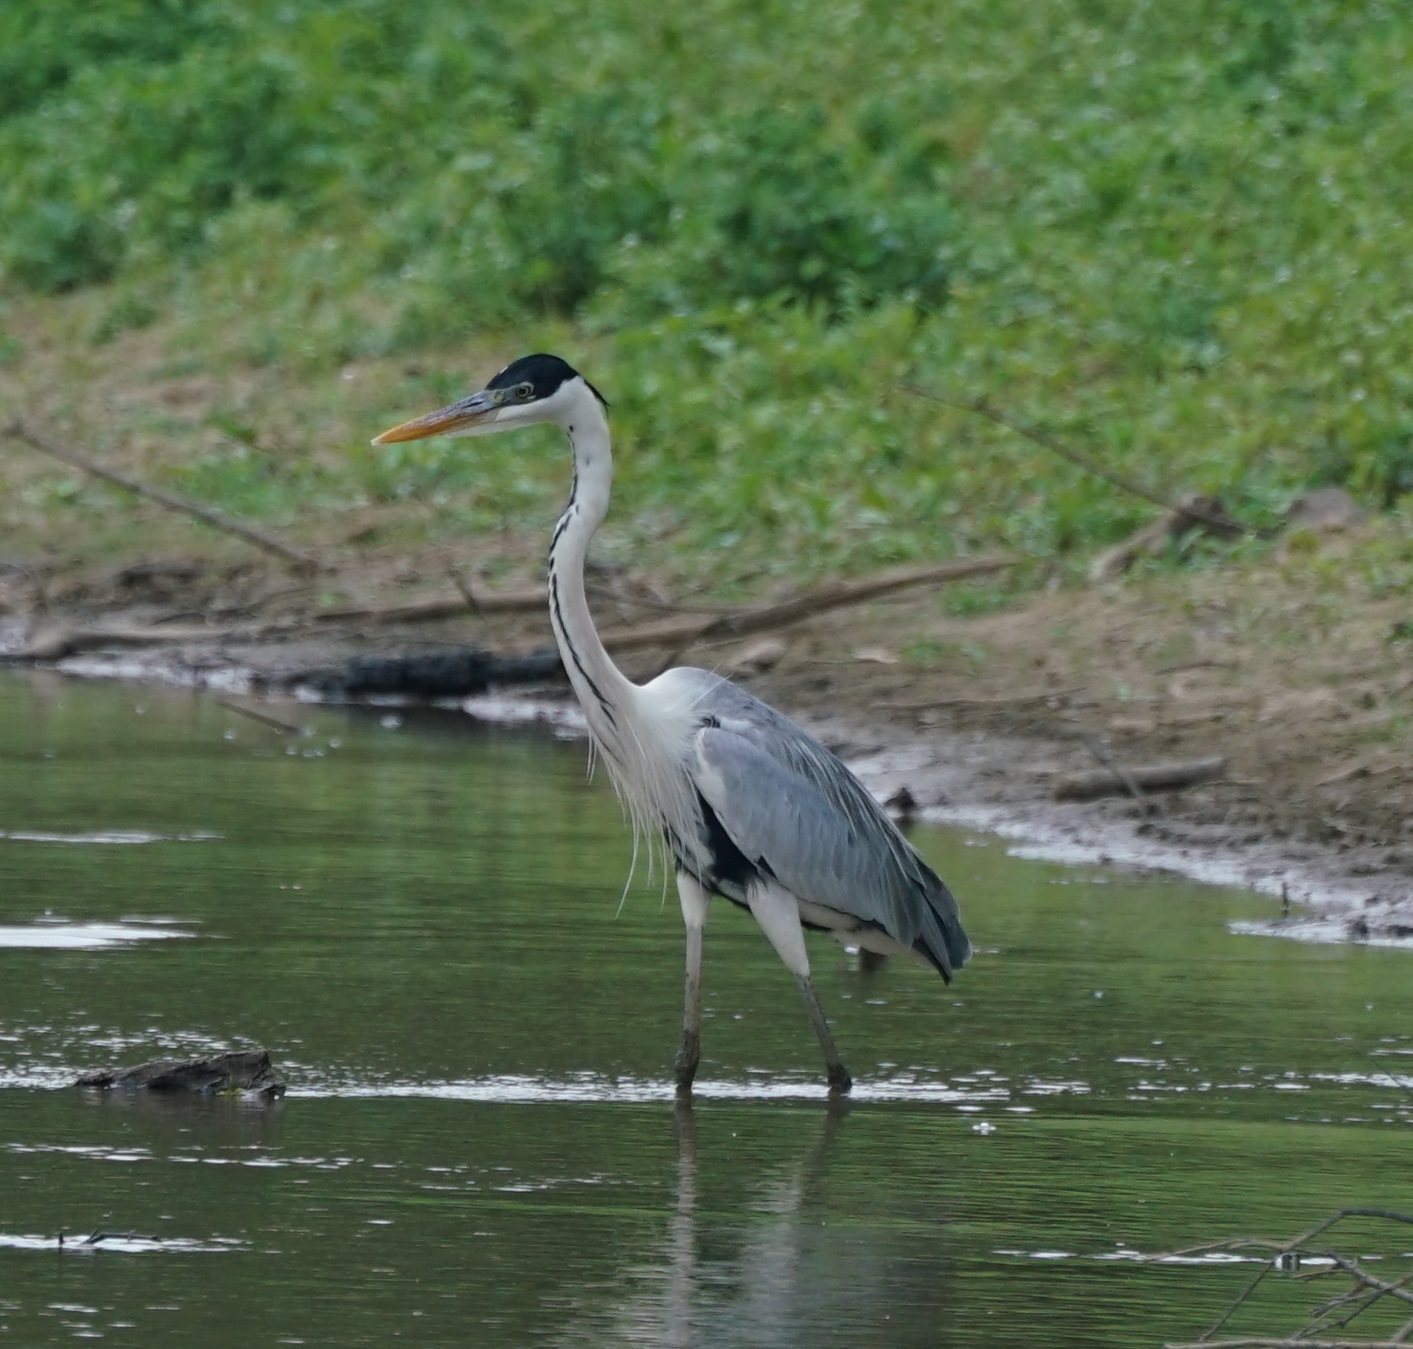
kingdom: Animalia
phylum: Chordata
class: Aves
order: Pelecaniformes
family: Ardeidae
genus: Ardea
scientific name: Ardea cocoi
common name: Cocoi heron
